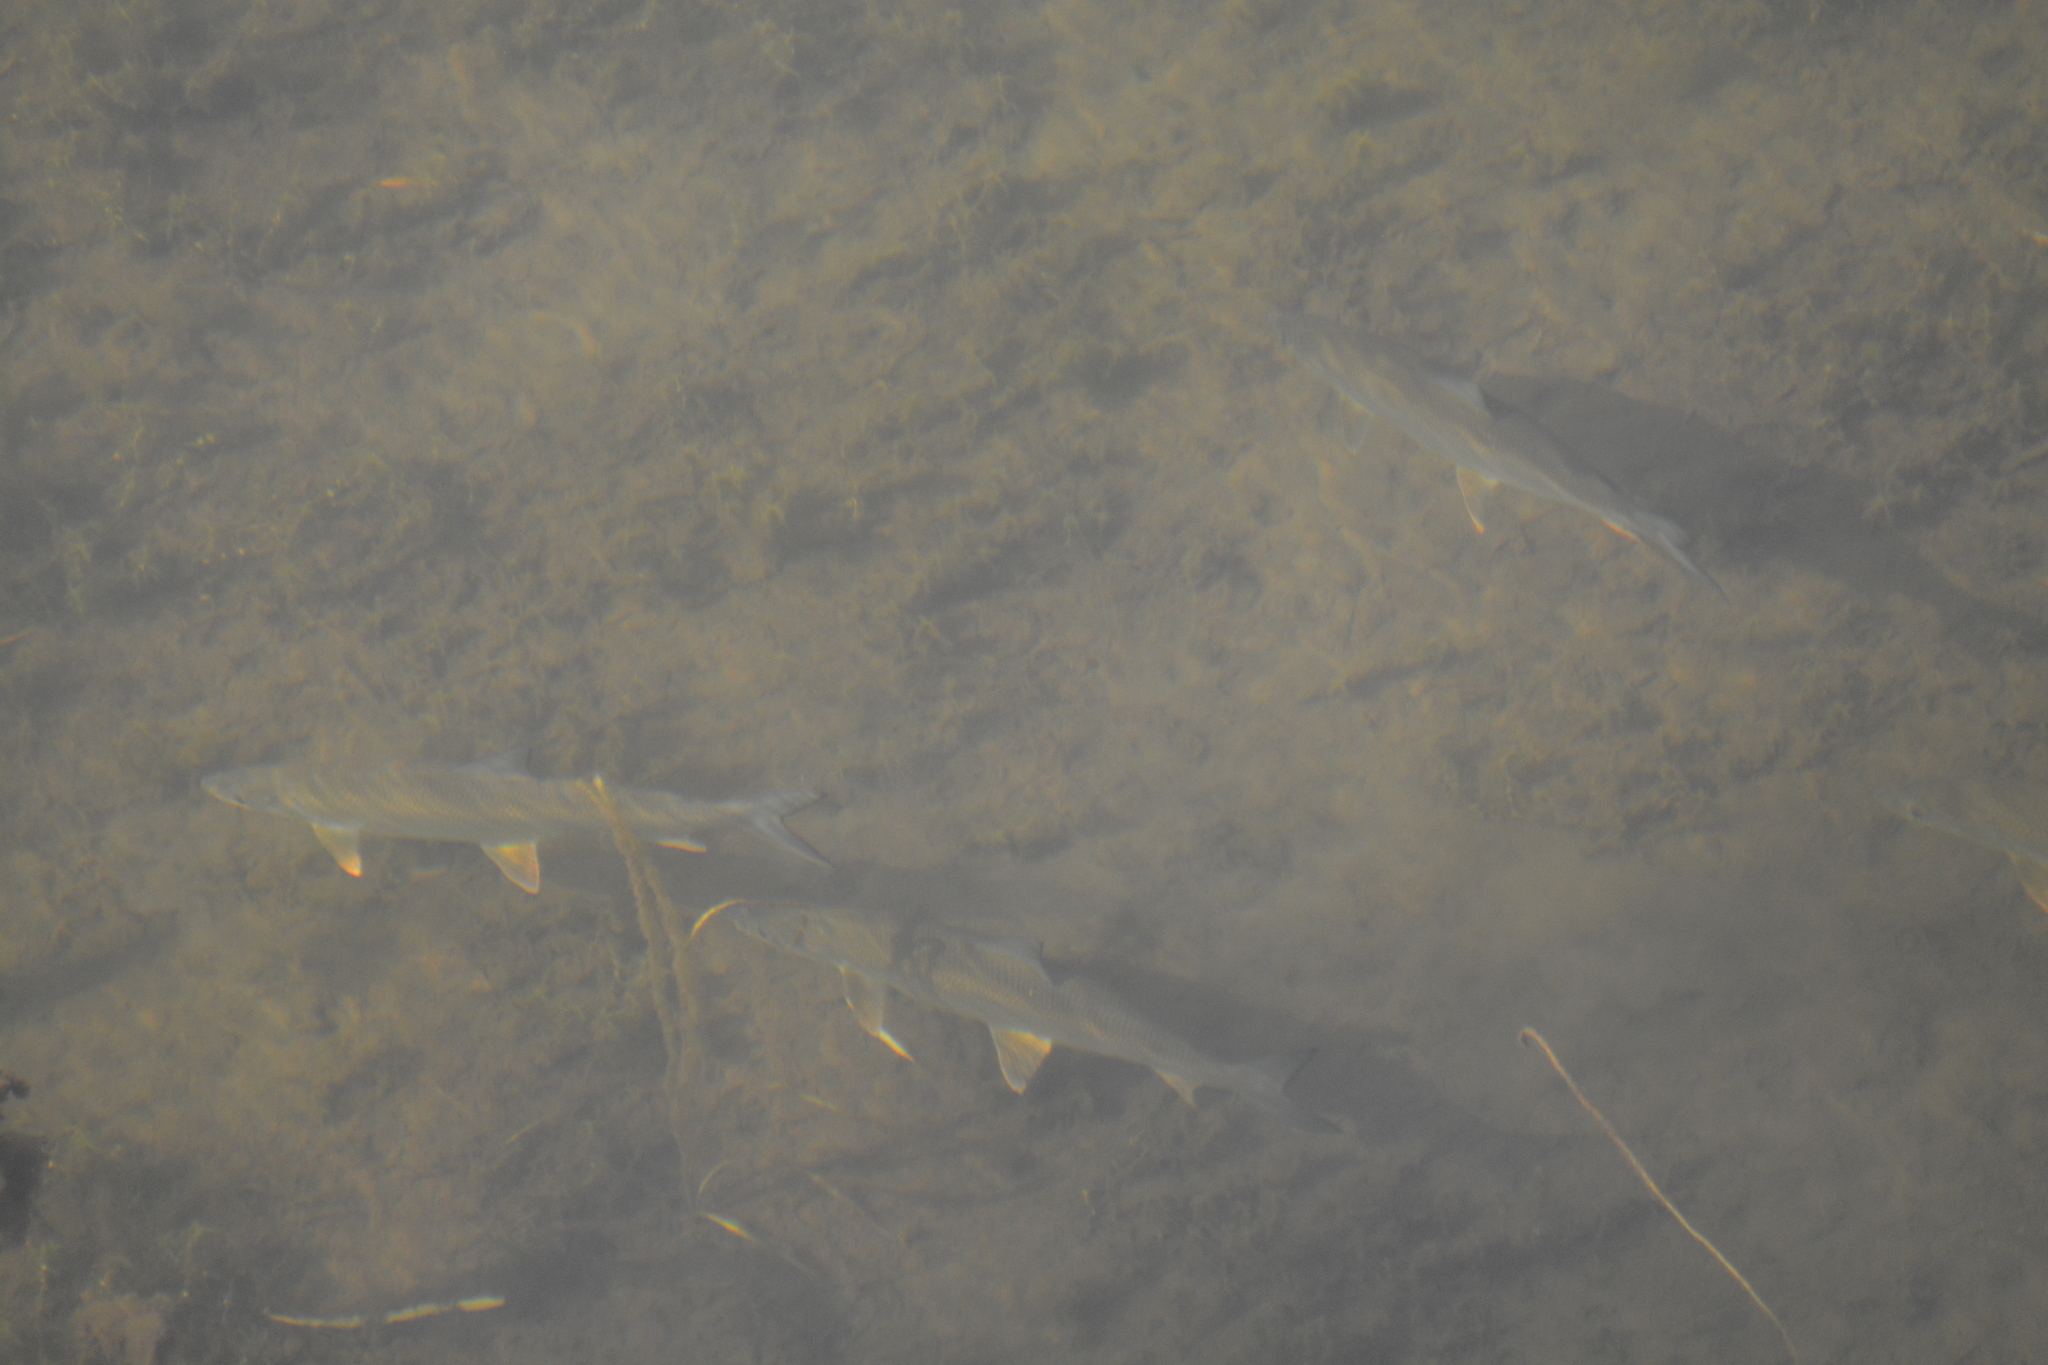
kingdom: Animalia
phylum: Chordata
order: Salmoniformes
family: Salmonidae
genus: Brachymystax
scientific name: Brachymystax lenok
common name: Lenok
